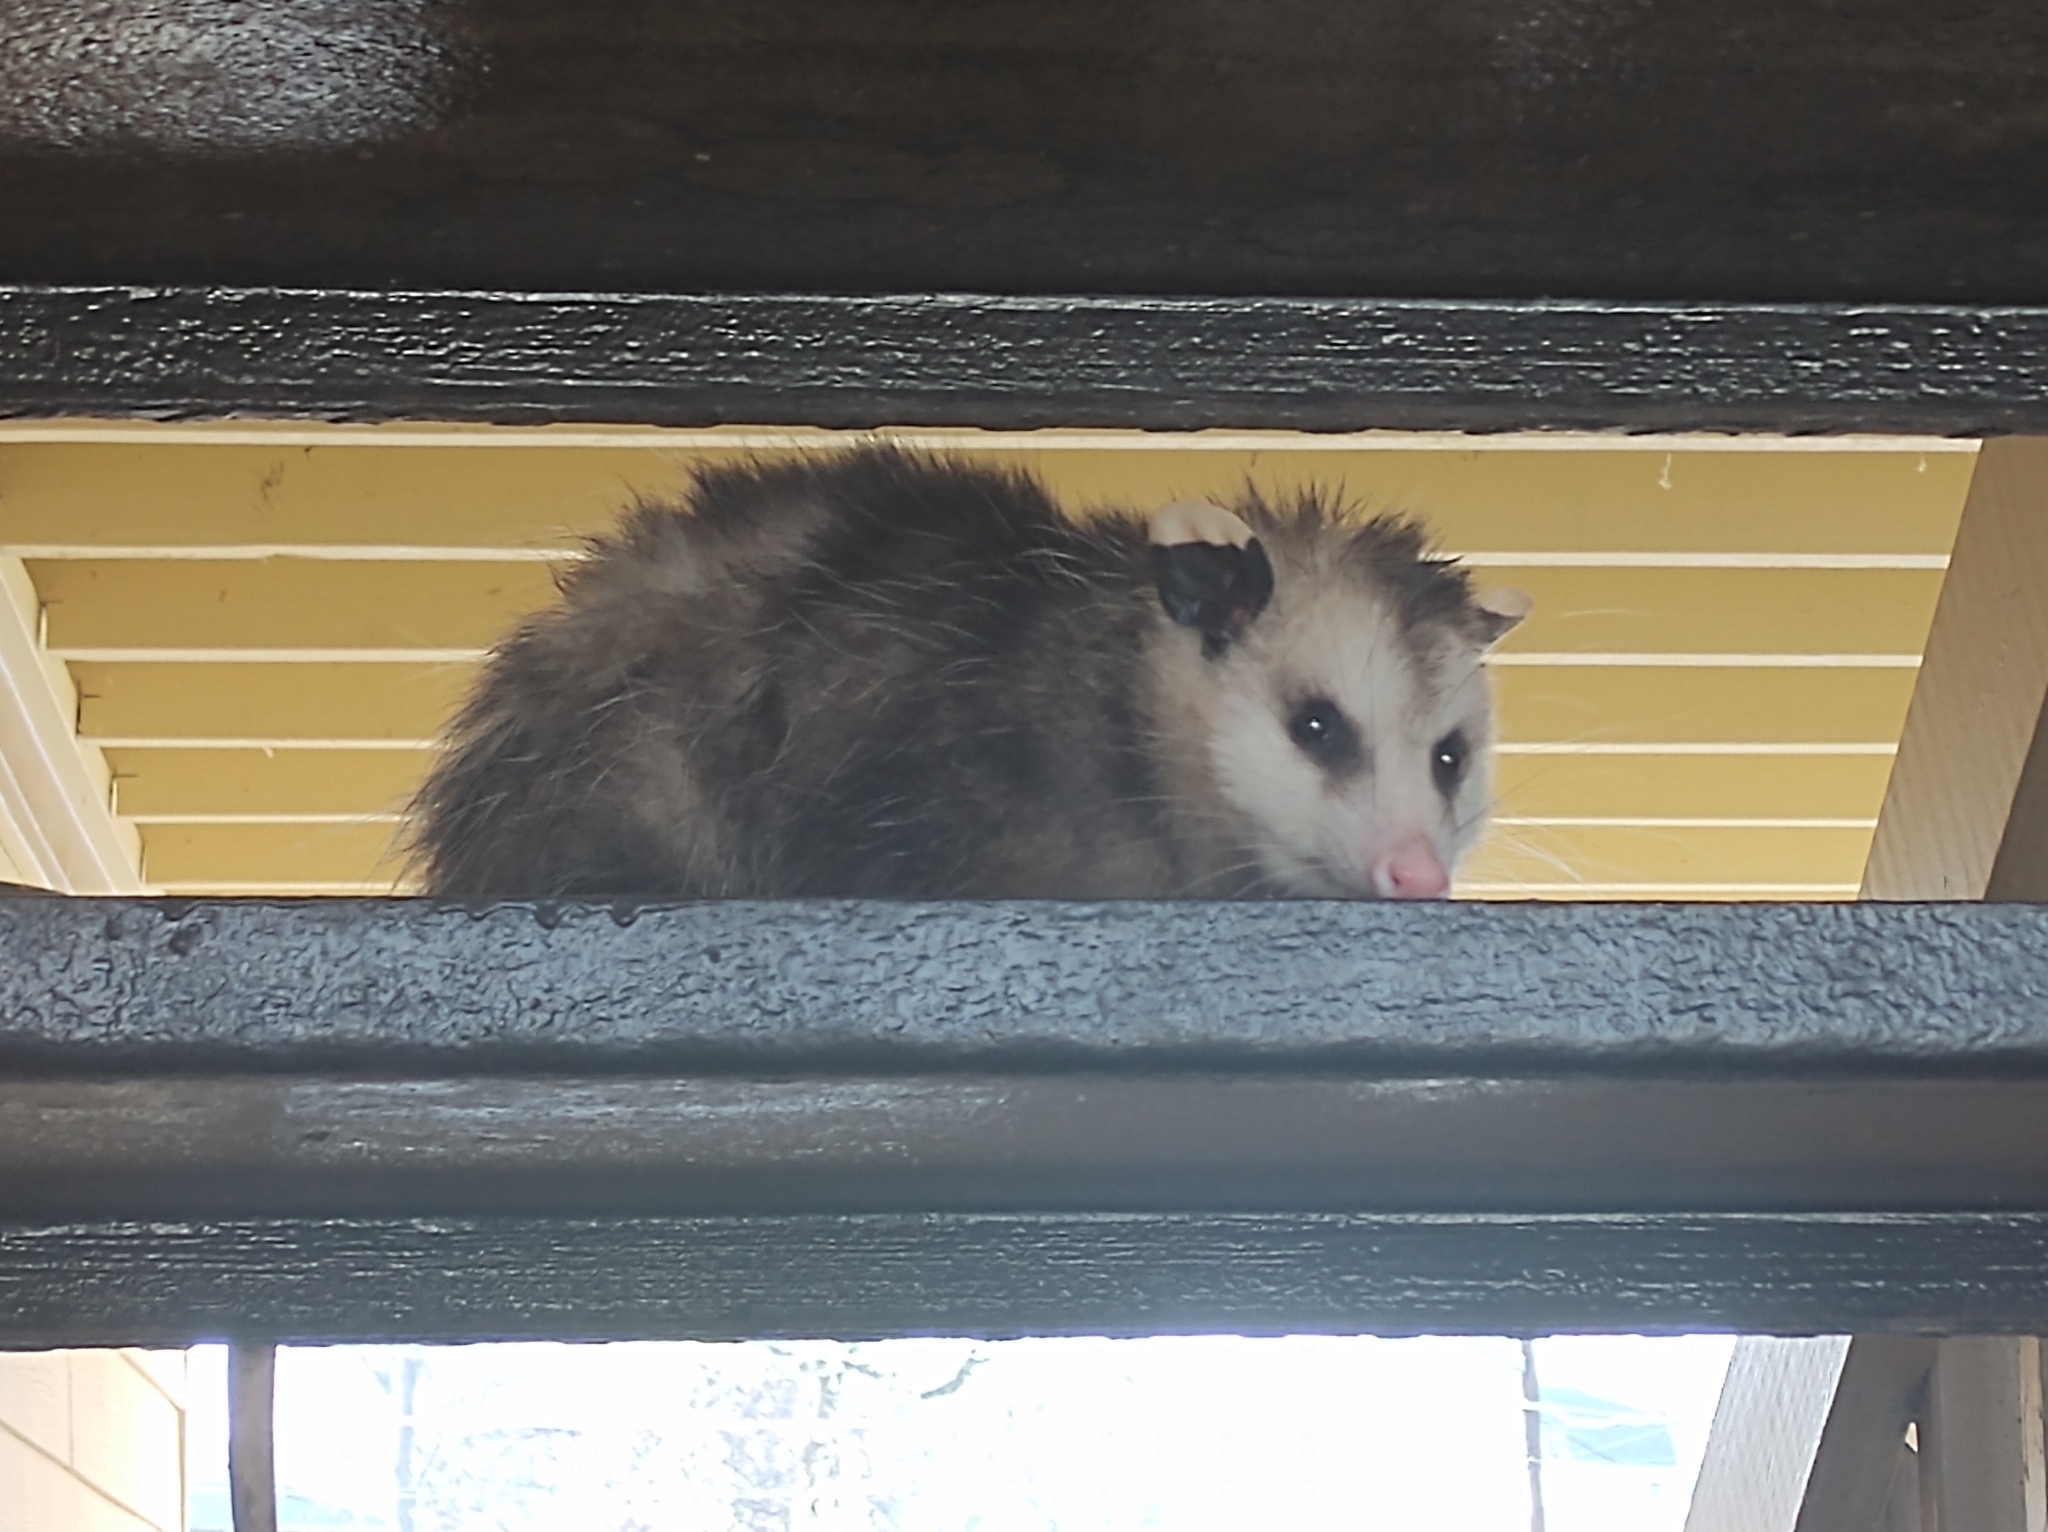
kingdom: Animalia
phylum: Chordata
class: Mammalia
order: Didelphimorphia
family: Didelphidae
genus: Didelphis
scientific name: Didelphis virginiana
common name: Virginia opossum
